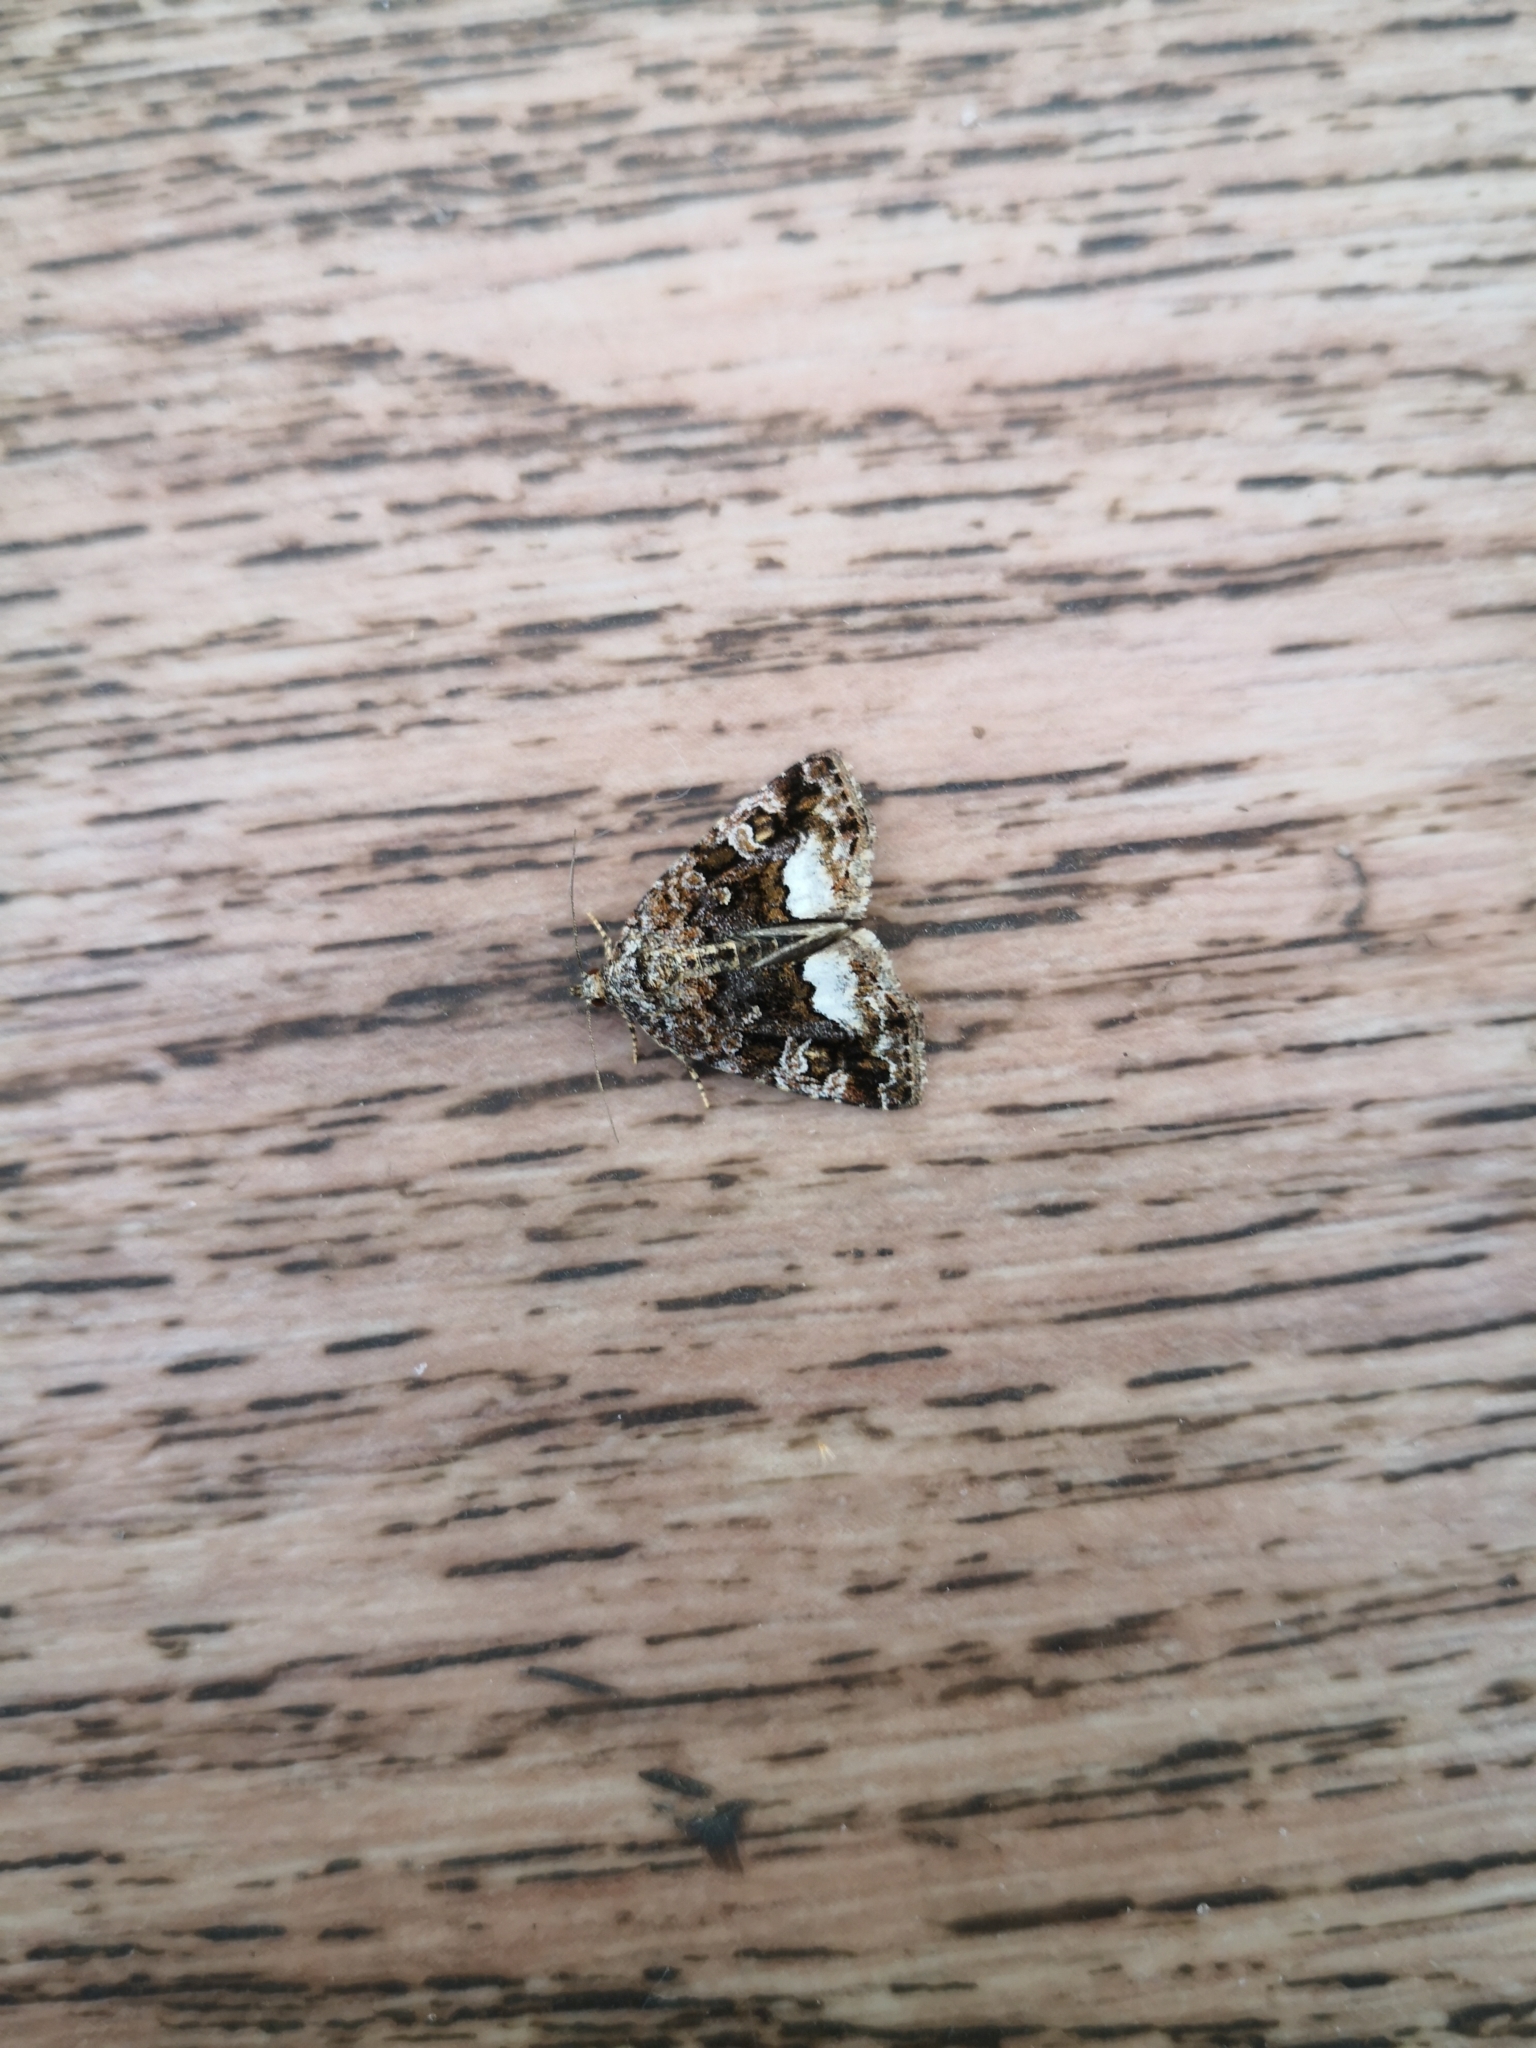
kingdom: Animalia
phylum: Arthropoda
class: Insecta
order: Lepidoptera
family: Noctuidae
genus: Deltote
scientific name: Deltote pygarga
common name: Marbled white spot
